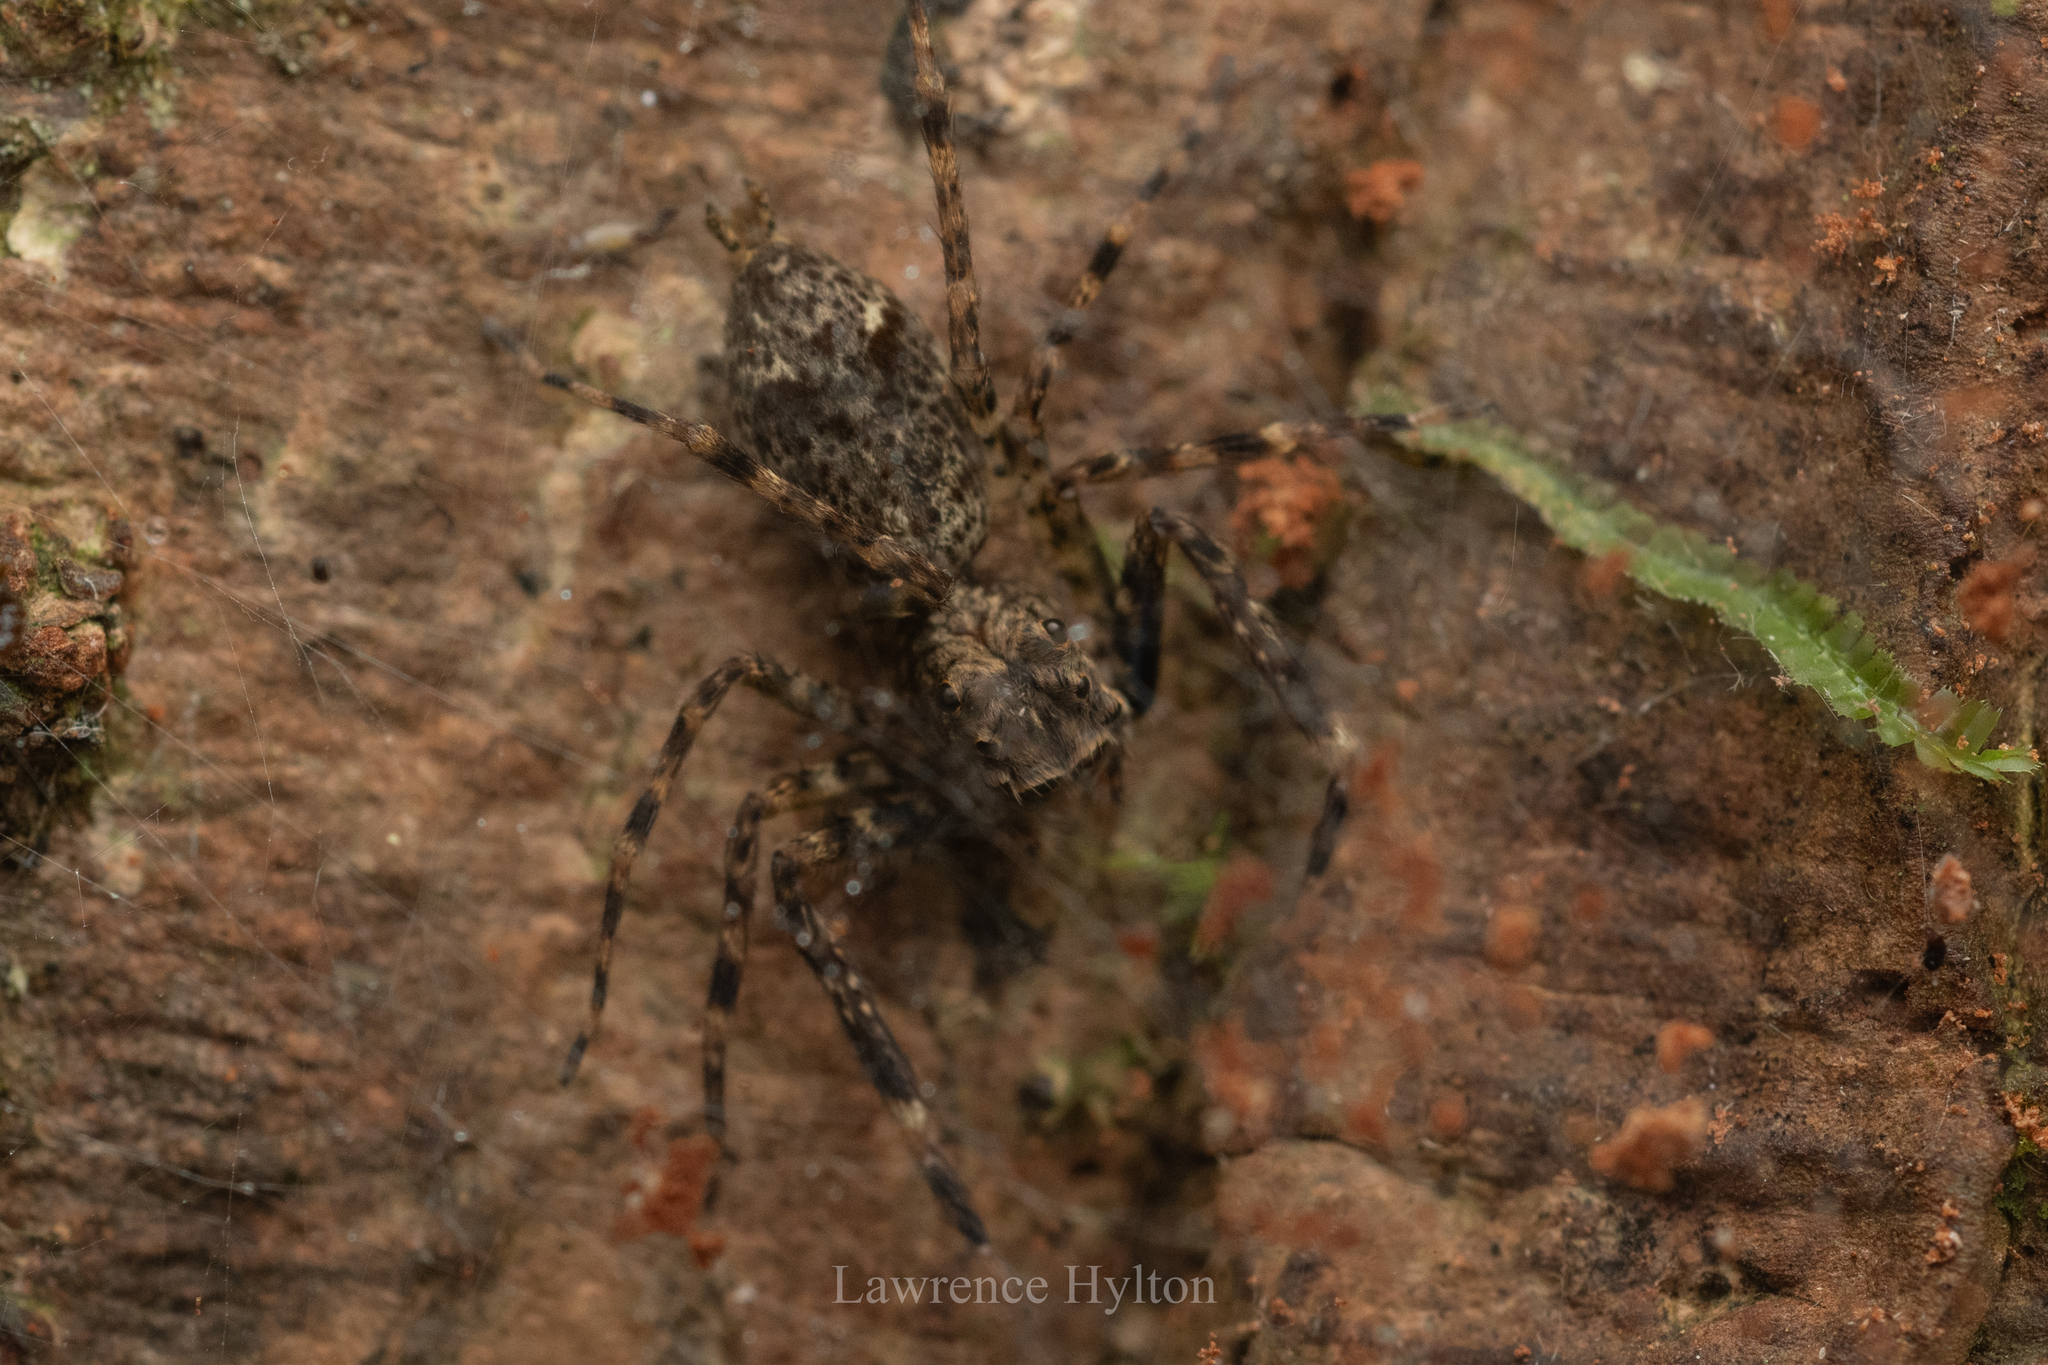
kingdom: Animalia
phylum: Arthropoda
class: Arachnida
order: Araneae
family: Salticidae
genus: Spartaeus
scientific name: Spartaeus zhangi
